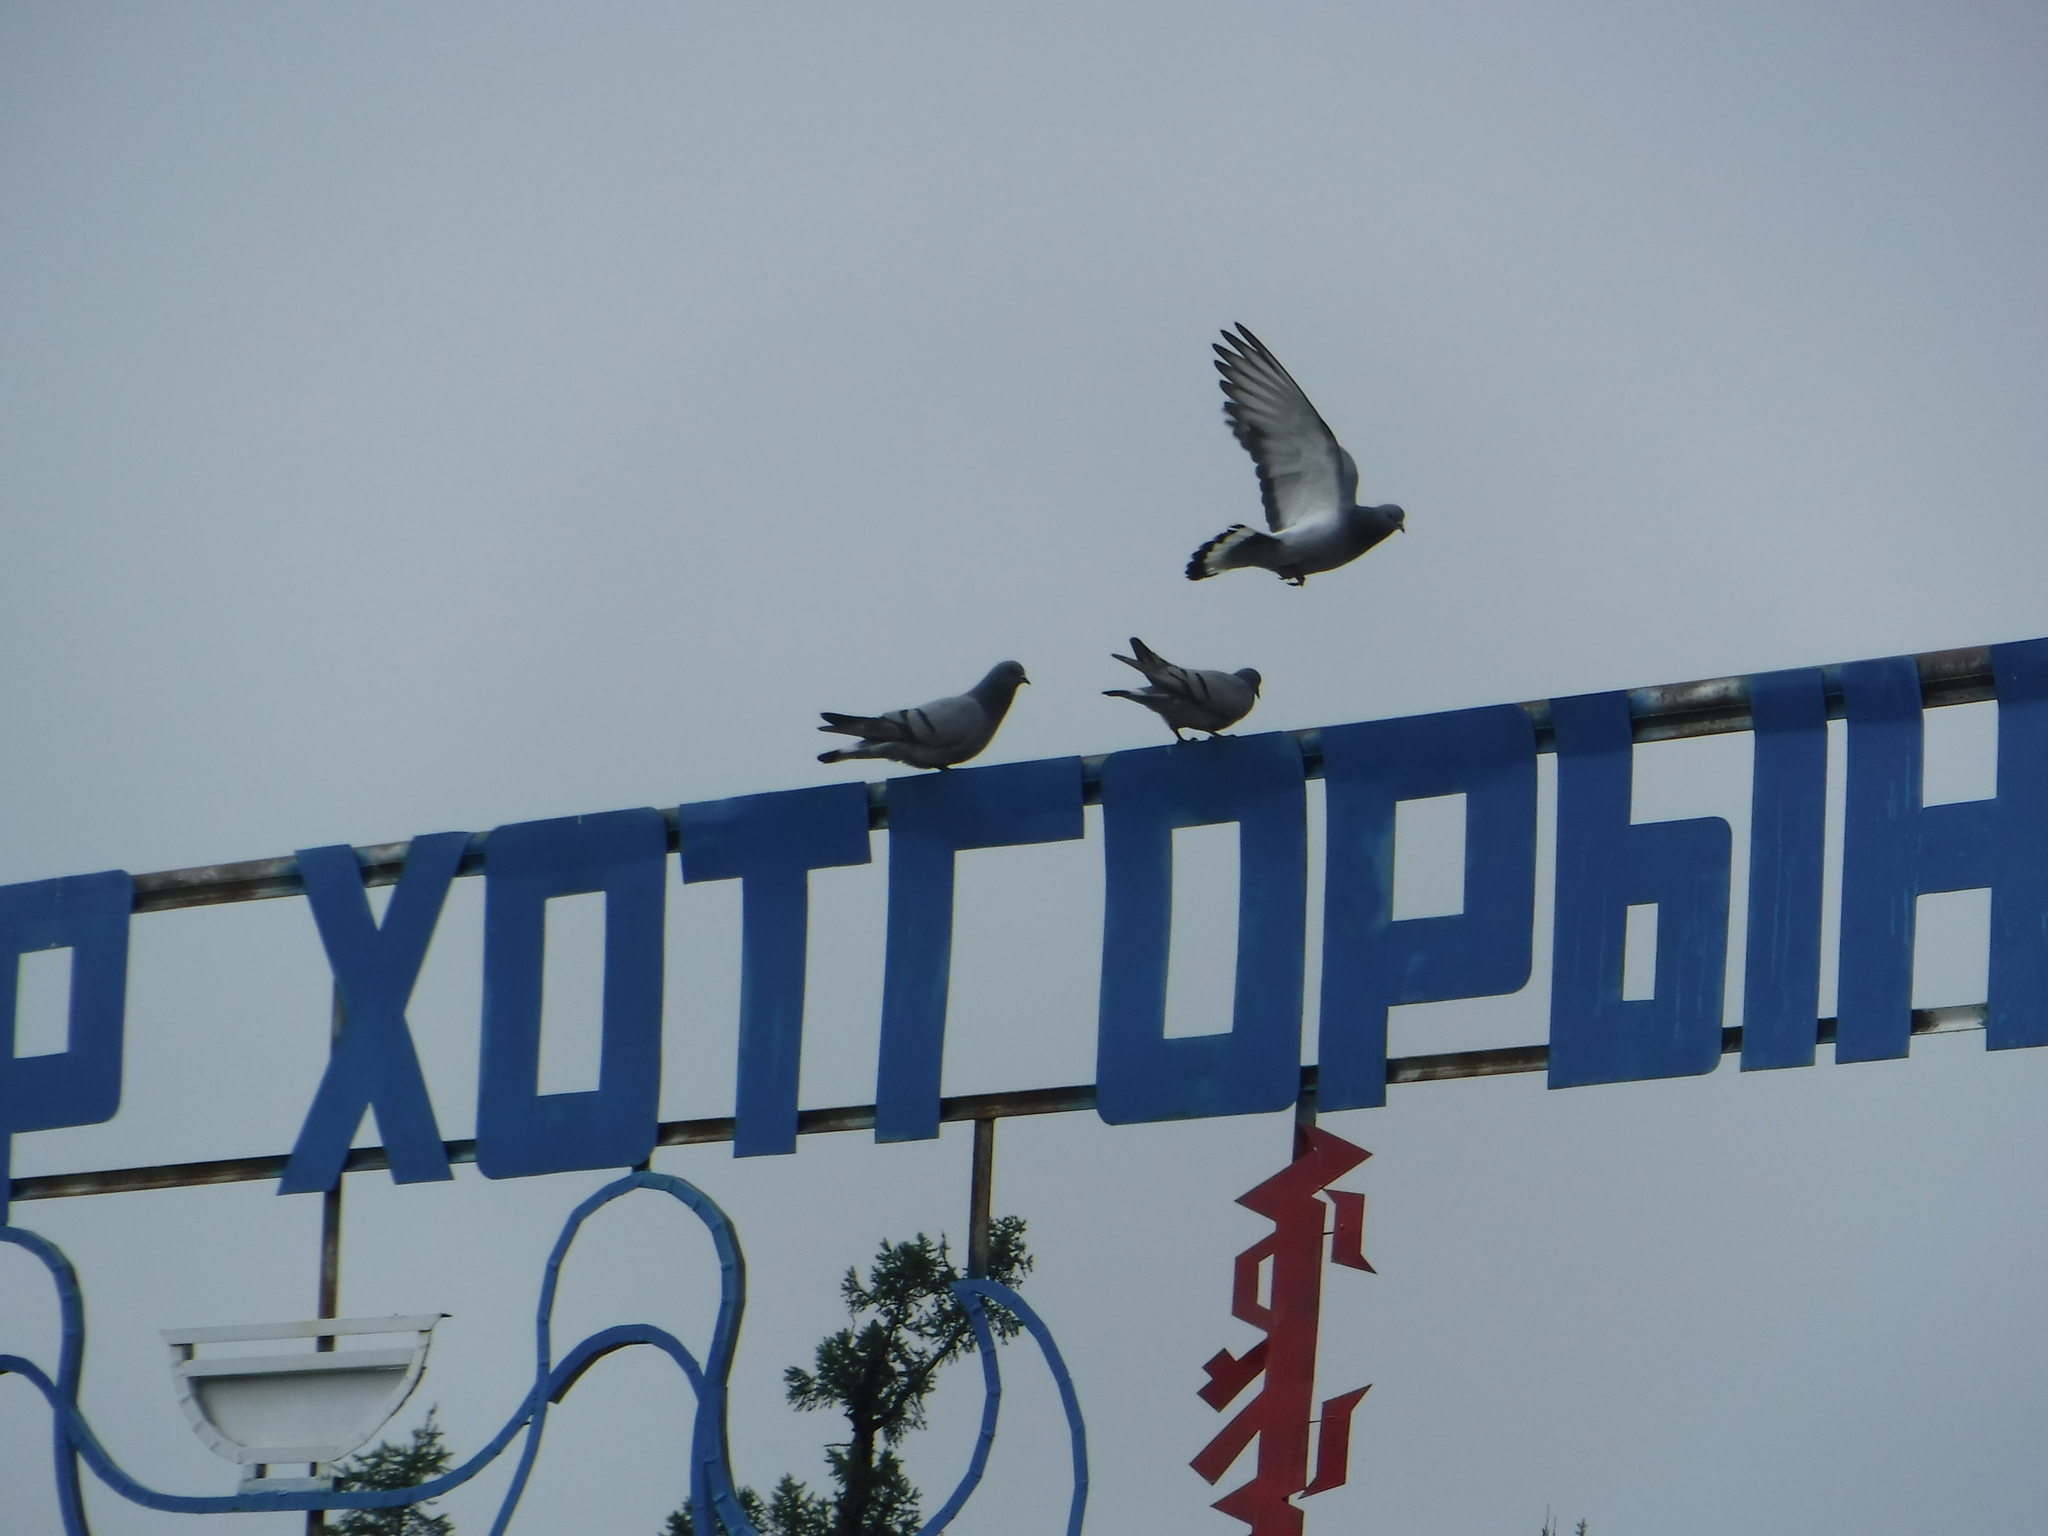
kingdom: Animalia
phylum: Chordata
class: Aves
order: Columbiformes
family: Columbidae
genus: Columba
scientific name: Columba rupestris
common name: Hill pigeon
